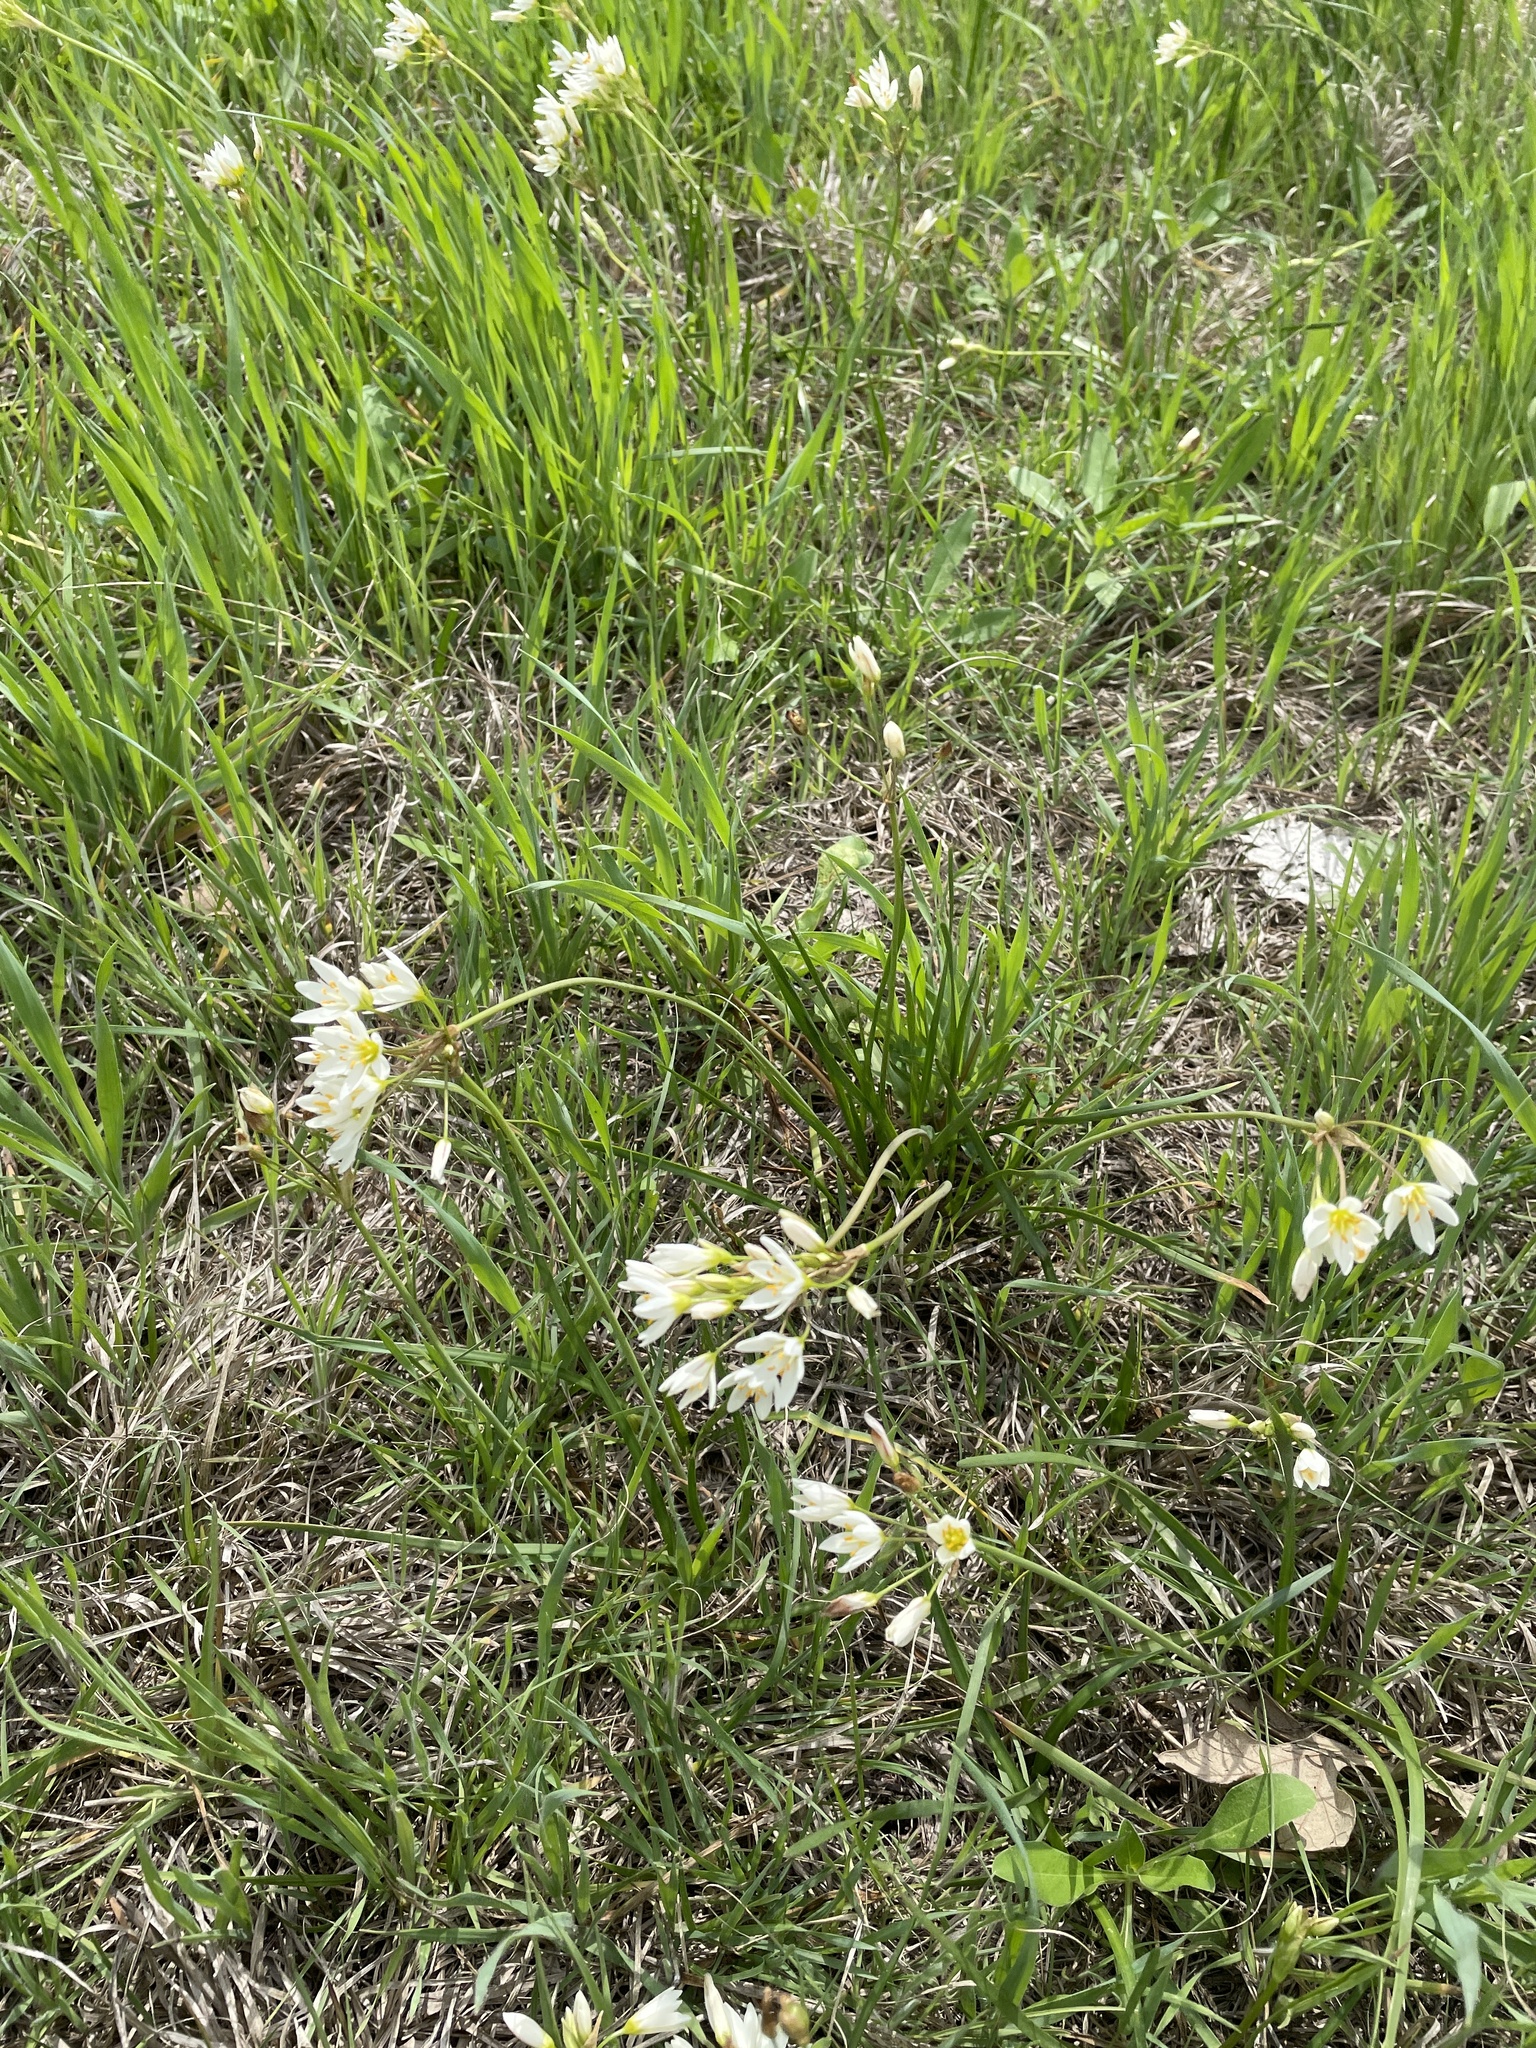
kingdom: Plantae
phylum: Tracheophyta
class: Liliopsida
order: Asparagales
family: Amaryllidaceae
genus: Nothoscordum
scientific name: Nothoscordum bivalve
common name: Crow-poison
